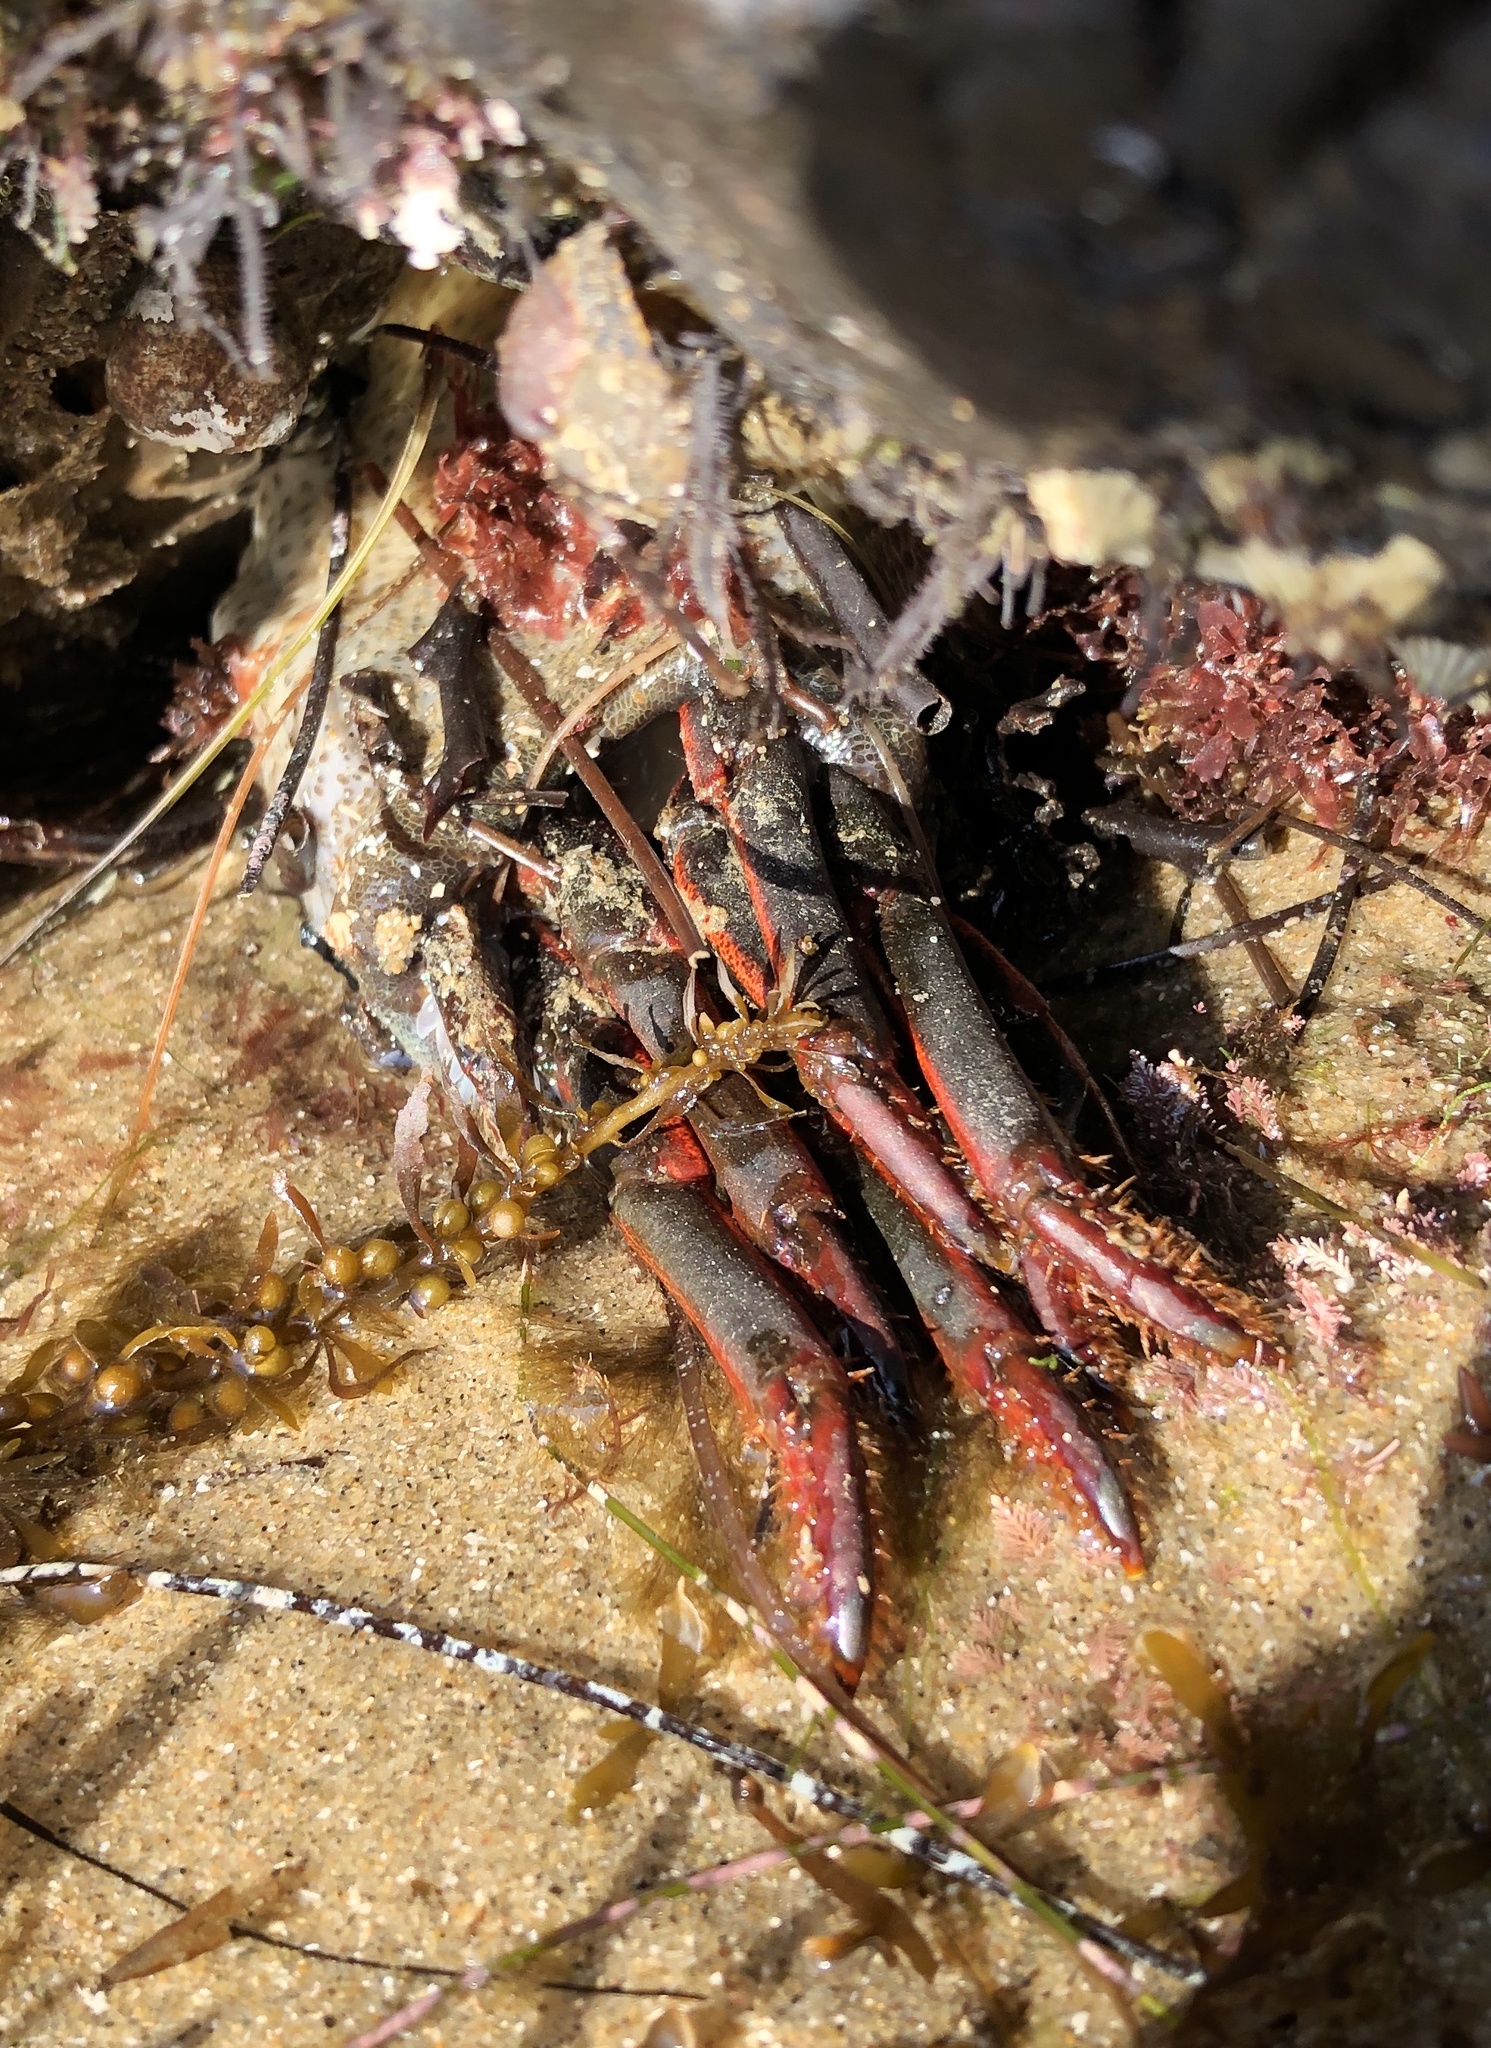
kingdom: Animalia
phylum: Arthropoda
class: Malacostraca
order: Decapoda
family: Palinuridae
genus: Panulirus
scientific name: Panulirus interruptus
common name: California spiny lobster
